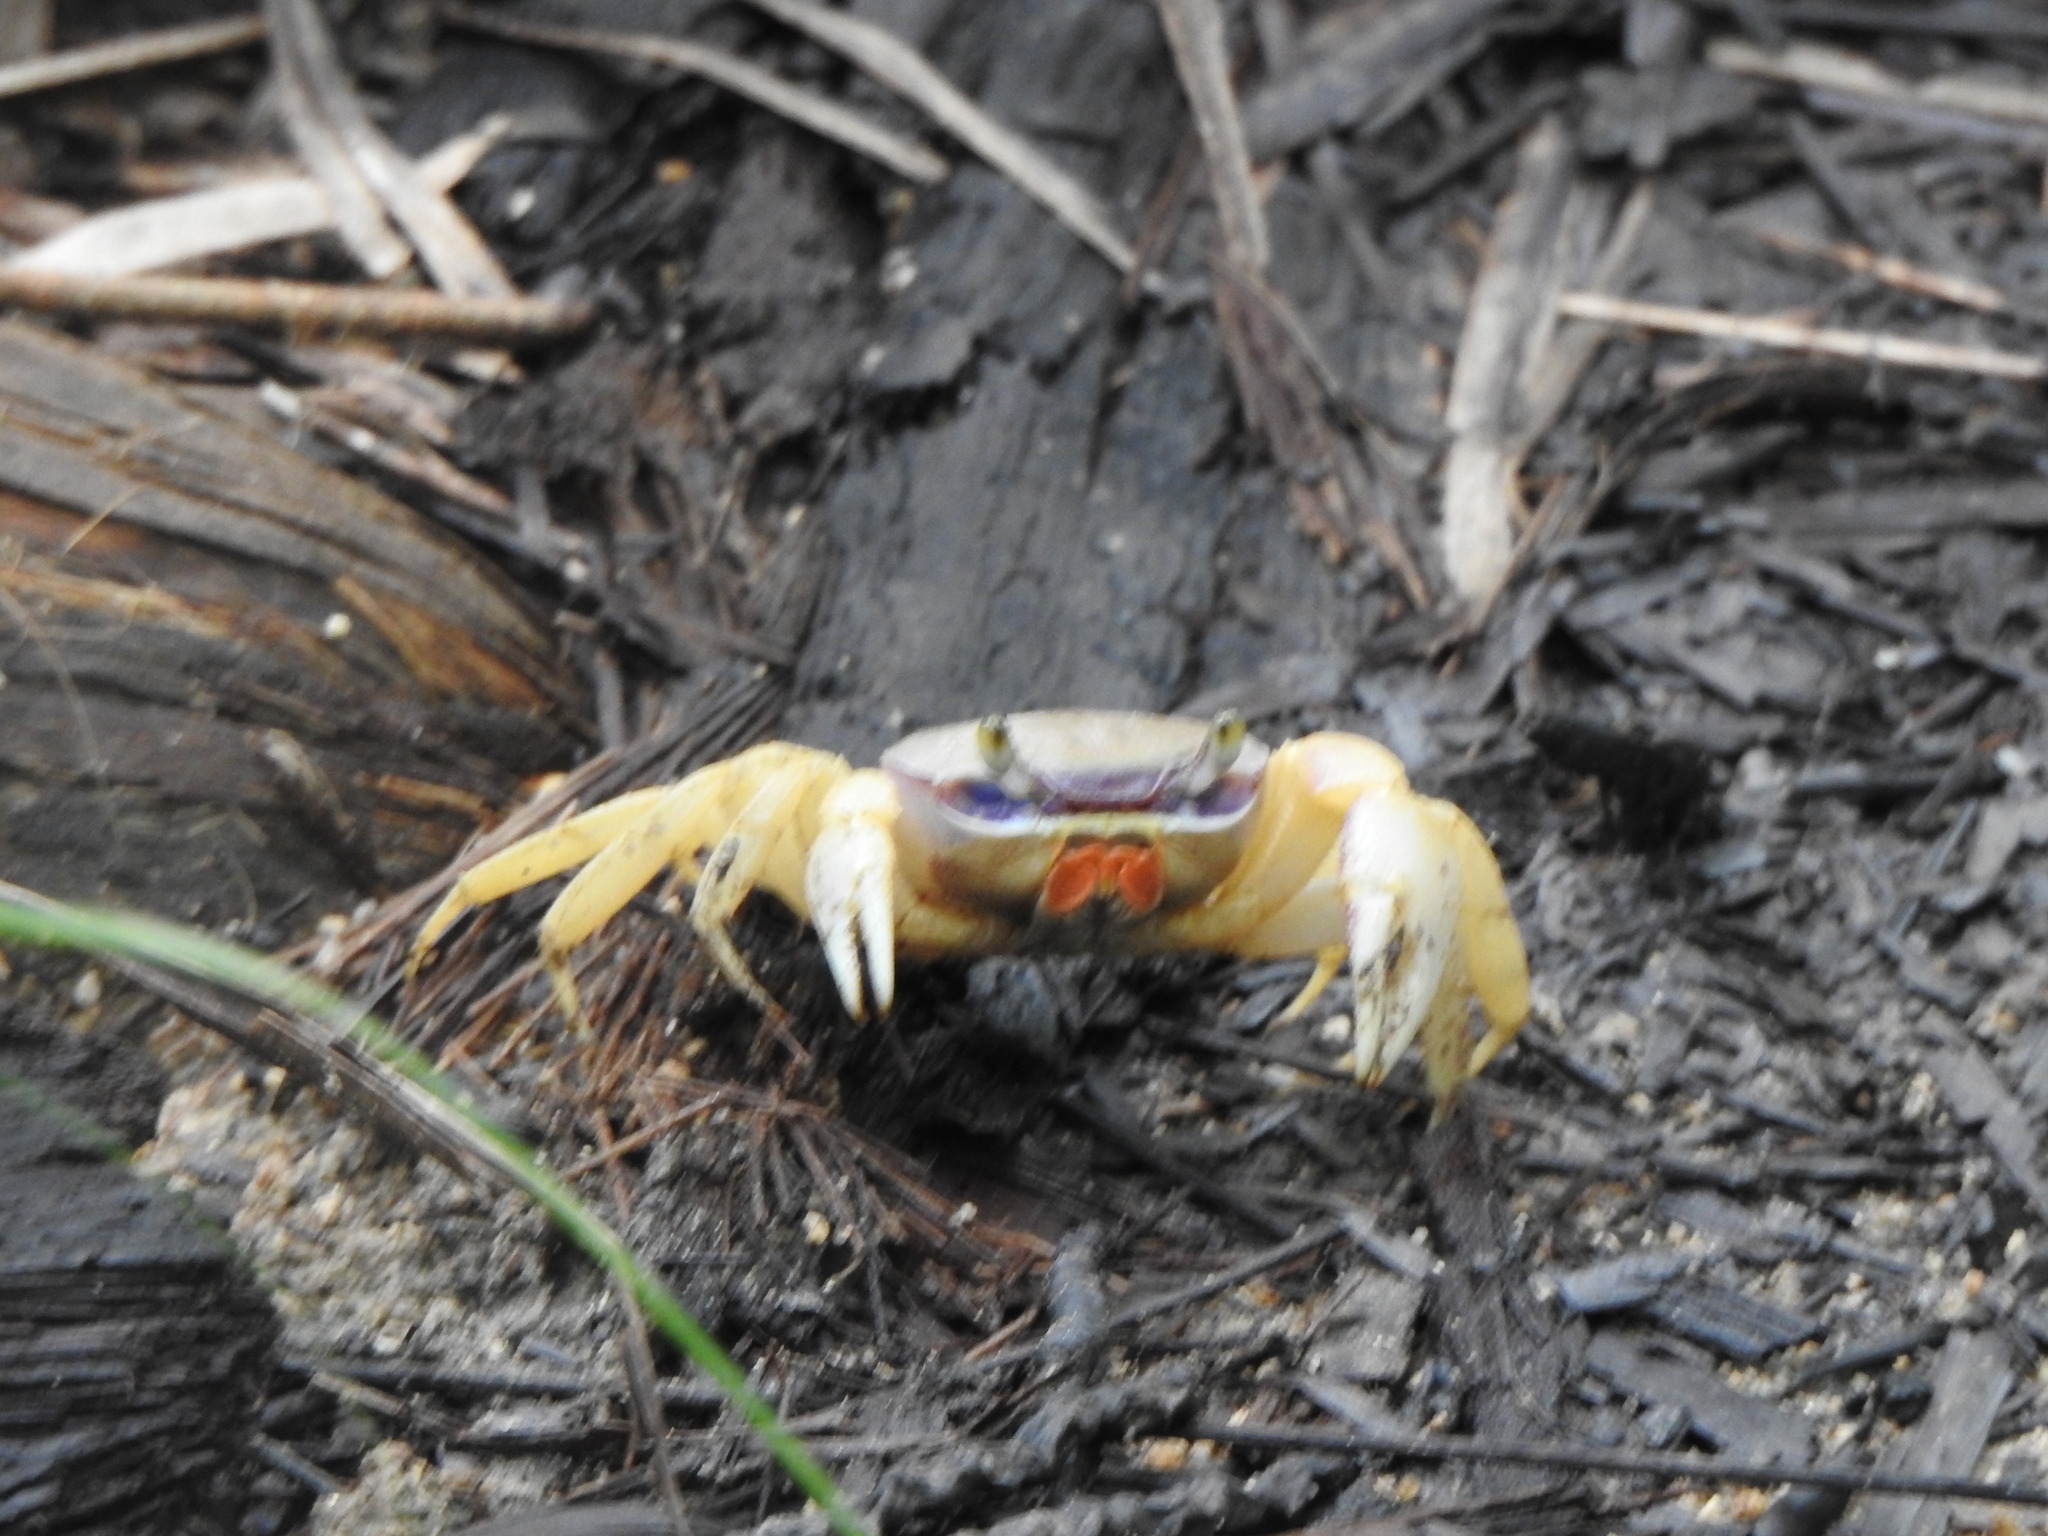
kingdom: Animalia
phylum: Arthropoda
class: Malacostraca
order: Decapoda
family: Gecarcinidae
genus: Cardisoma
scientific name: Cardisoma guanhumi
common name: Great land crab
